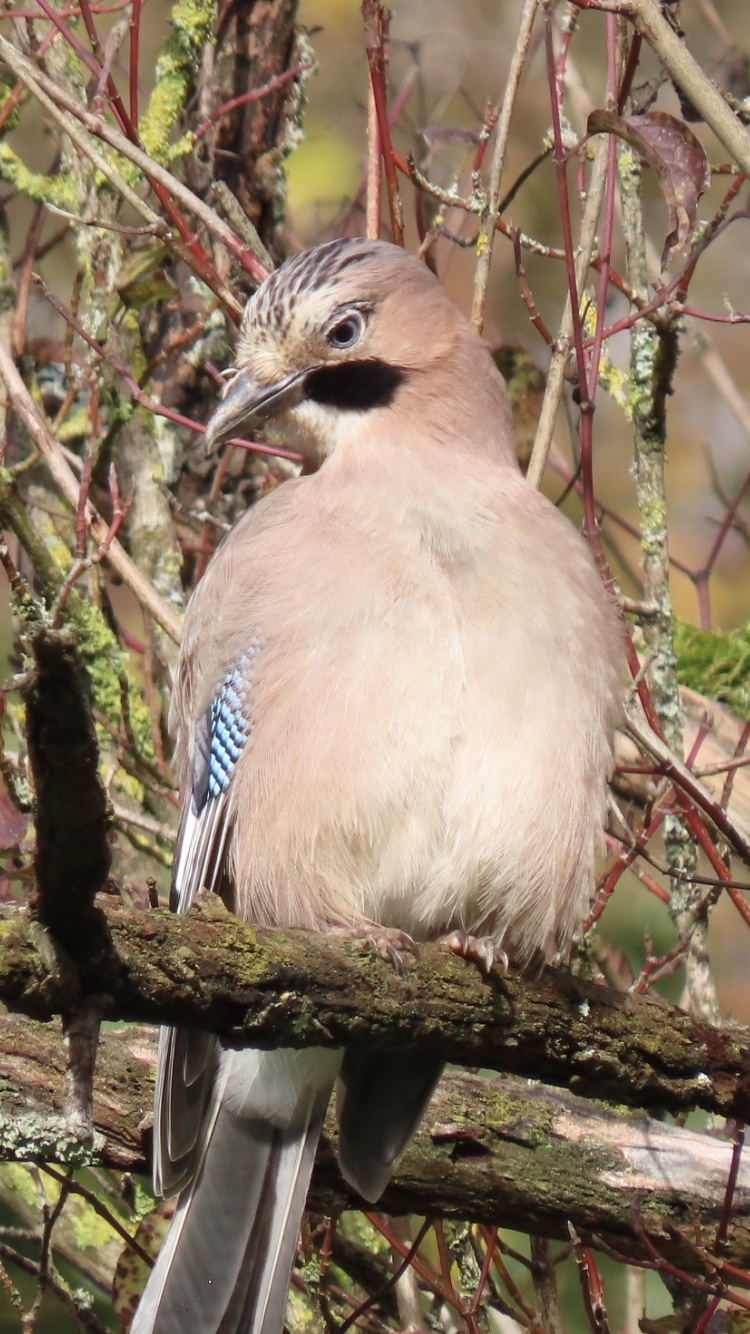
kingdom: Animalia
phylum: Chordata
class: Aves
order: Passeriformes
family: Corvidae
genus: Garrulus
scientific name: Garrulus glandarius
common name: Eurasian jay
